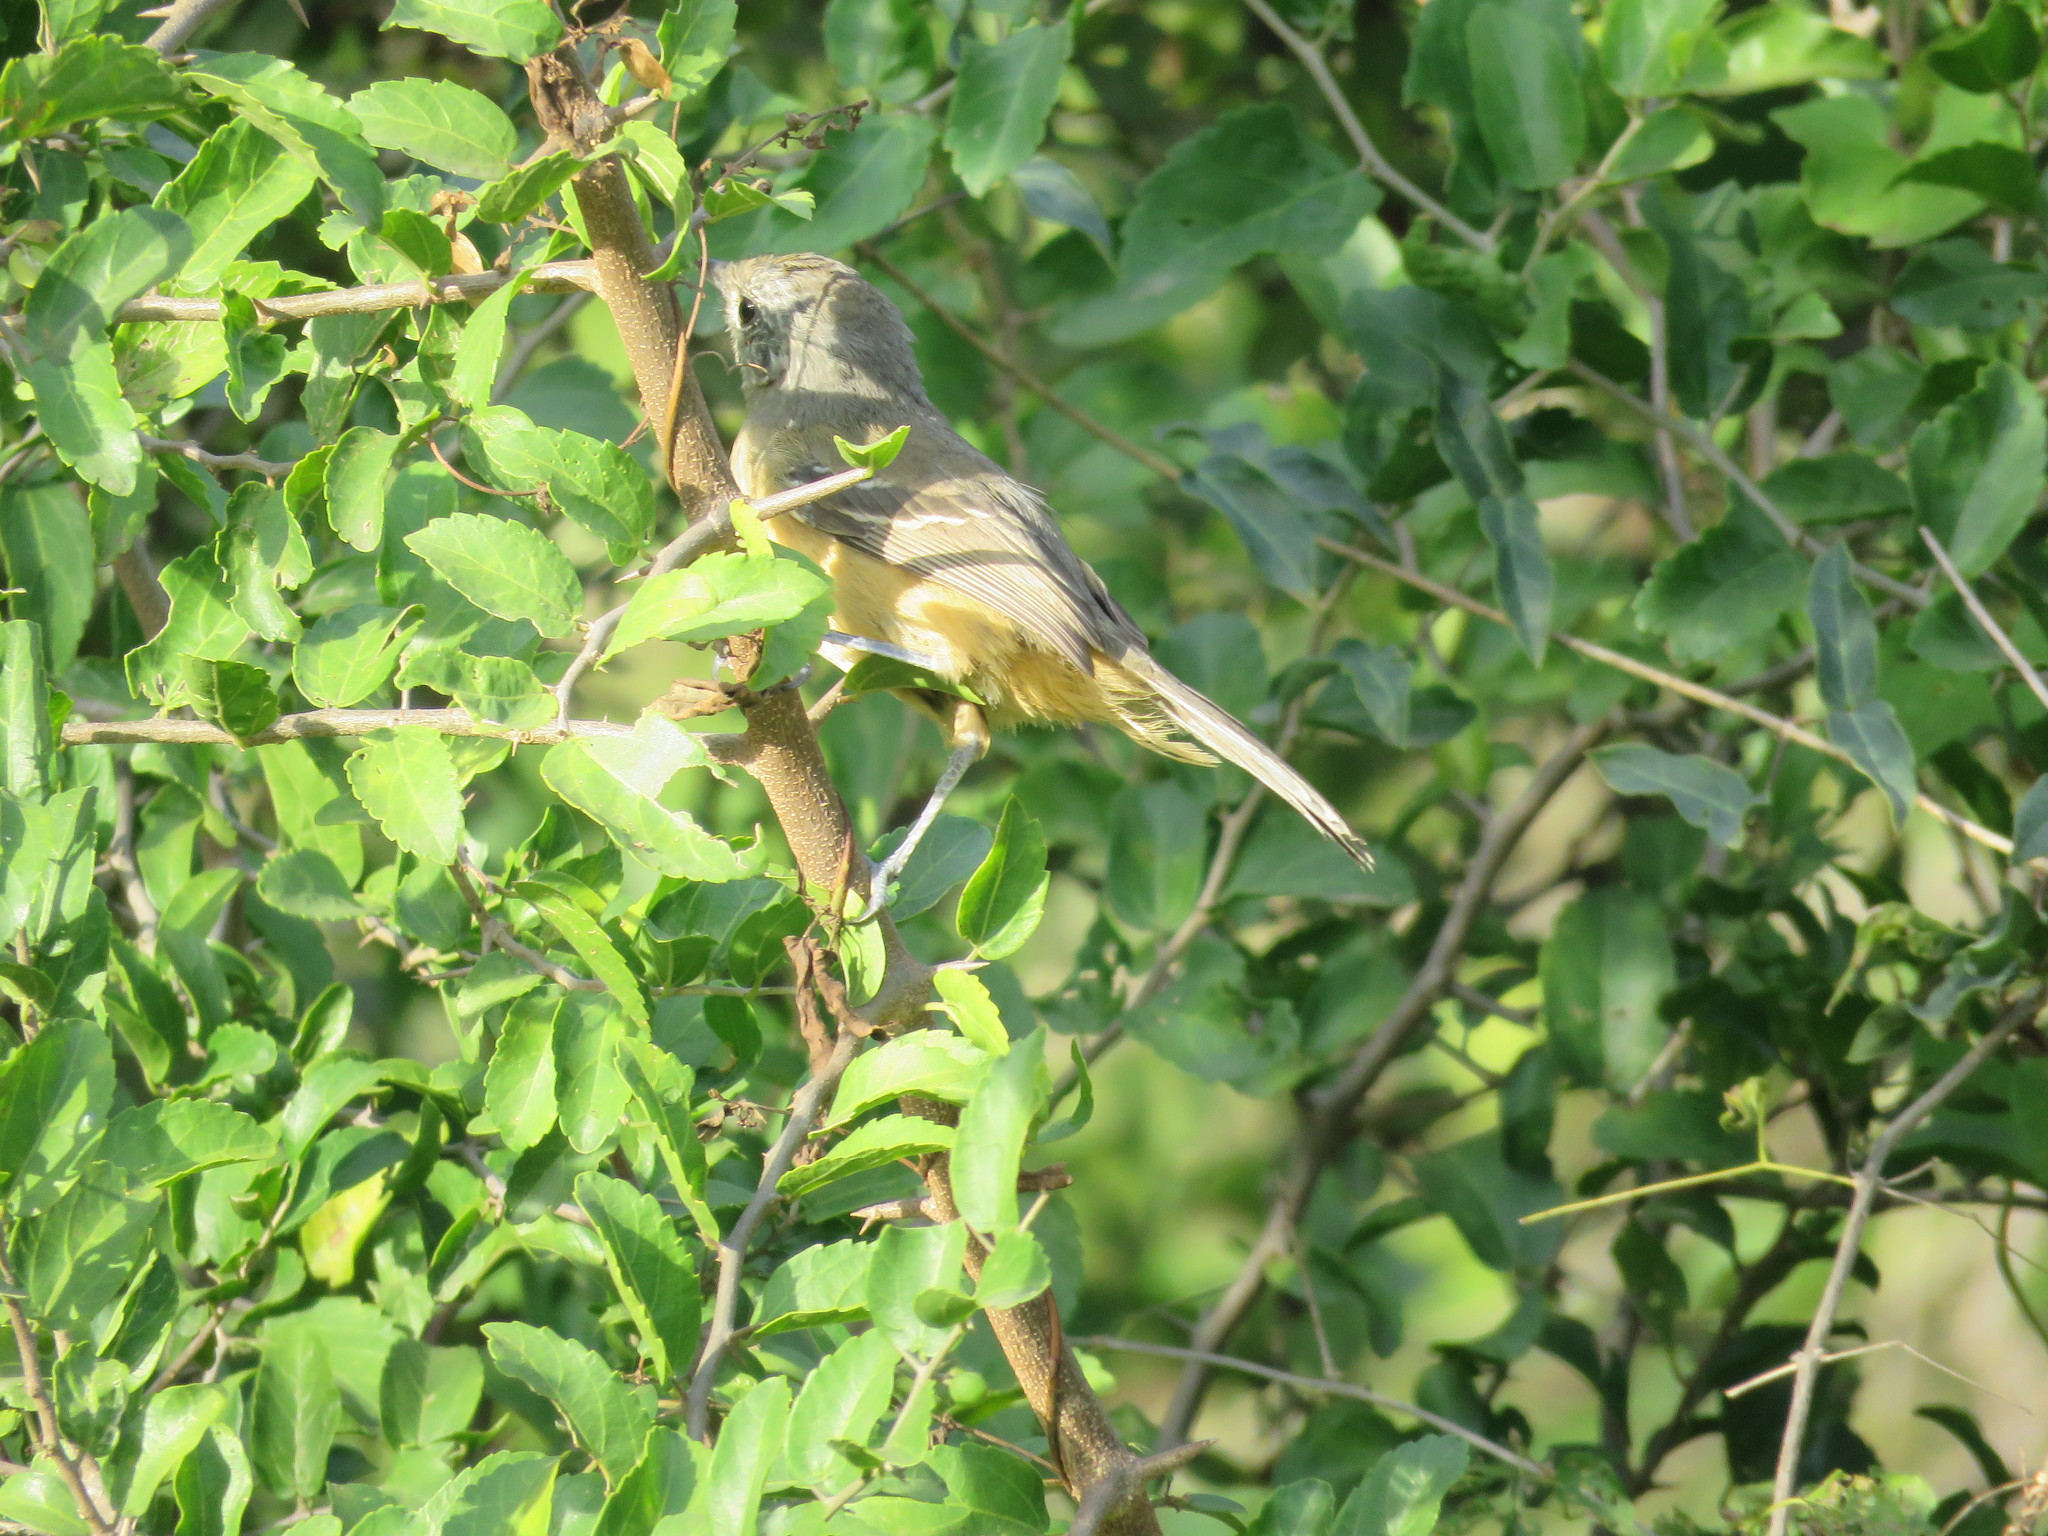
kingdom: Animalia
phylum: Chordata
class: Aves
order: Passeriformes
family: Thamnophilidae
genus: Thamnophilus
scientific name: Thamnophilus caerulescens
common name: Variable antshrike
